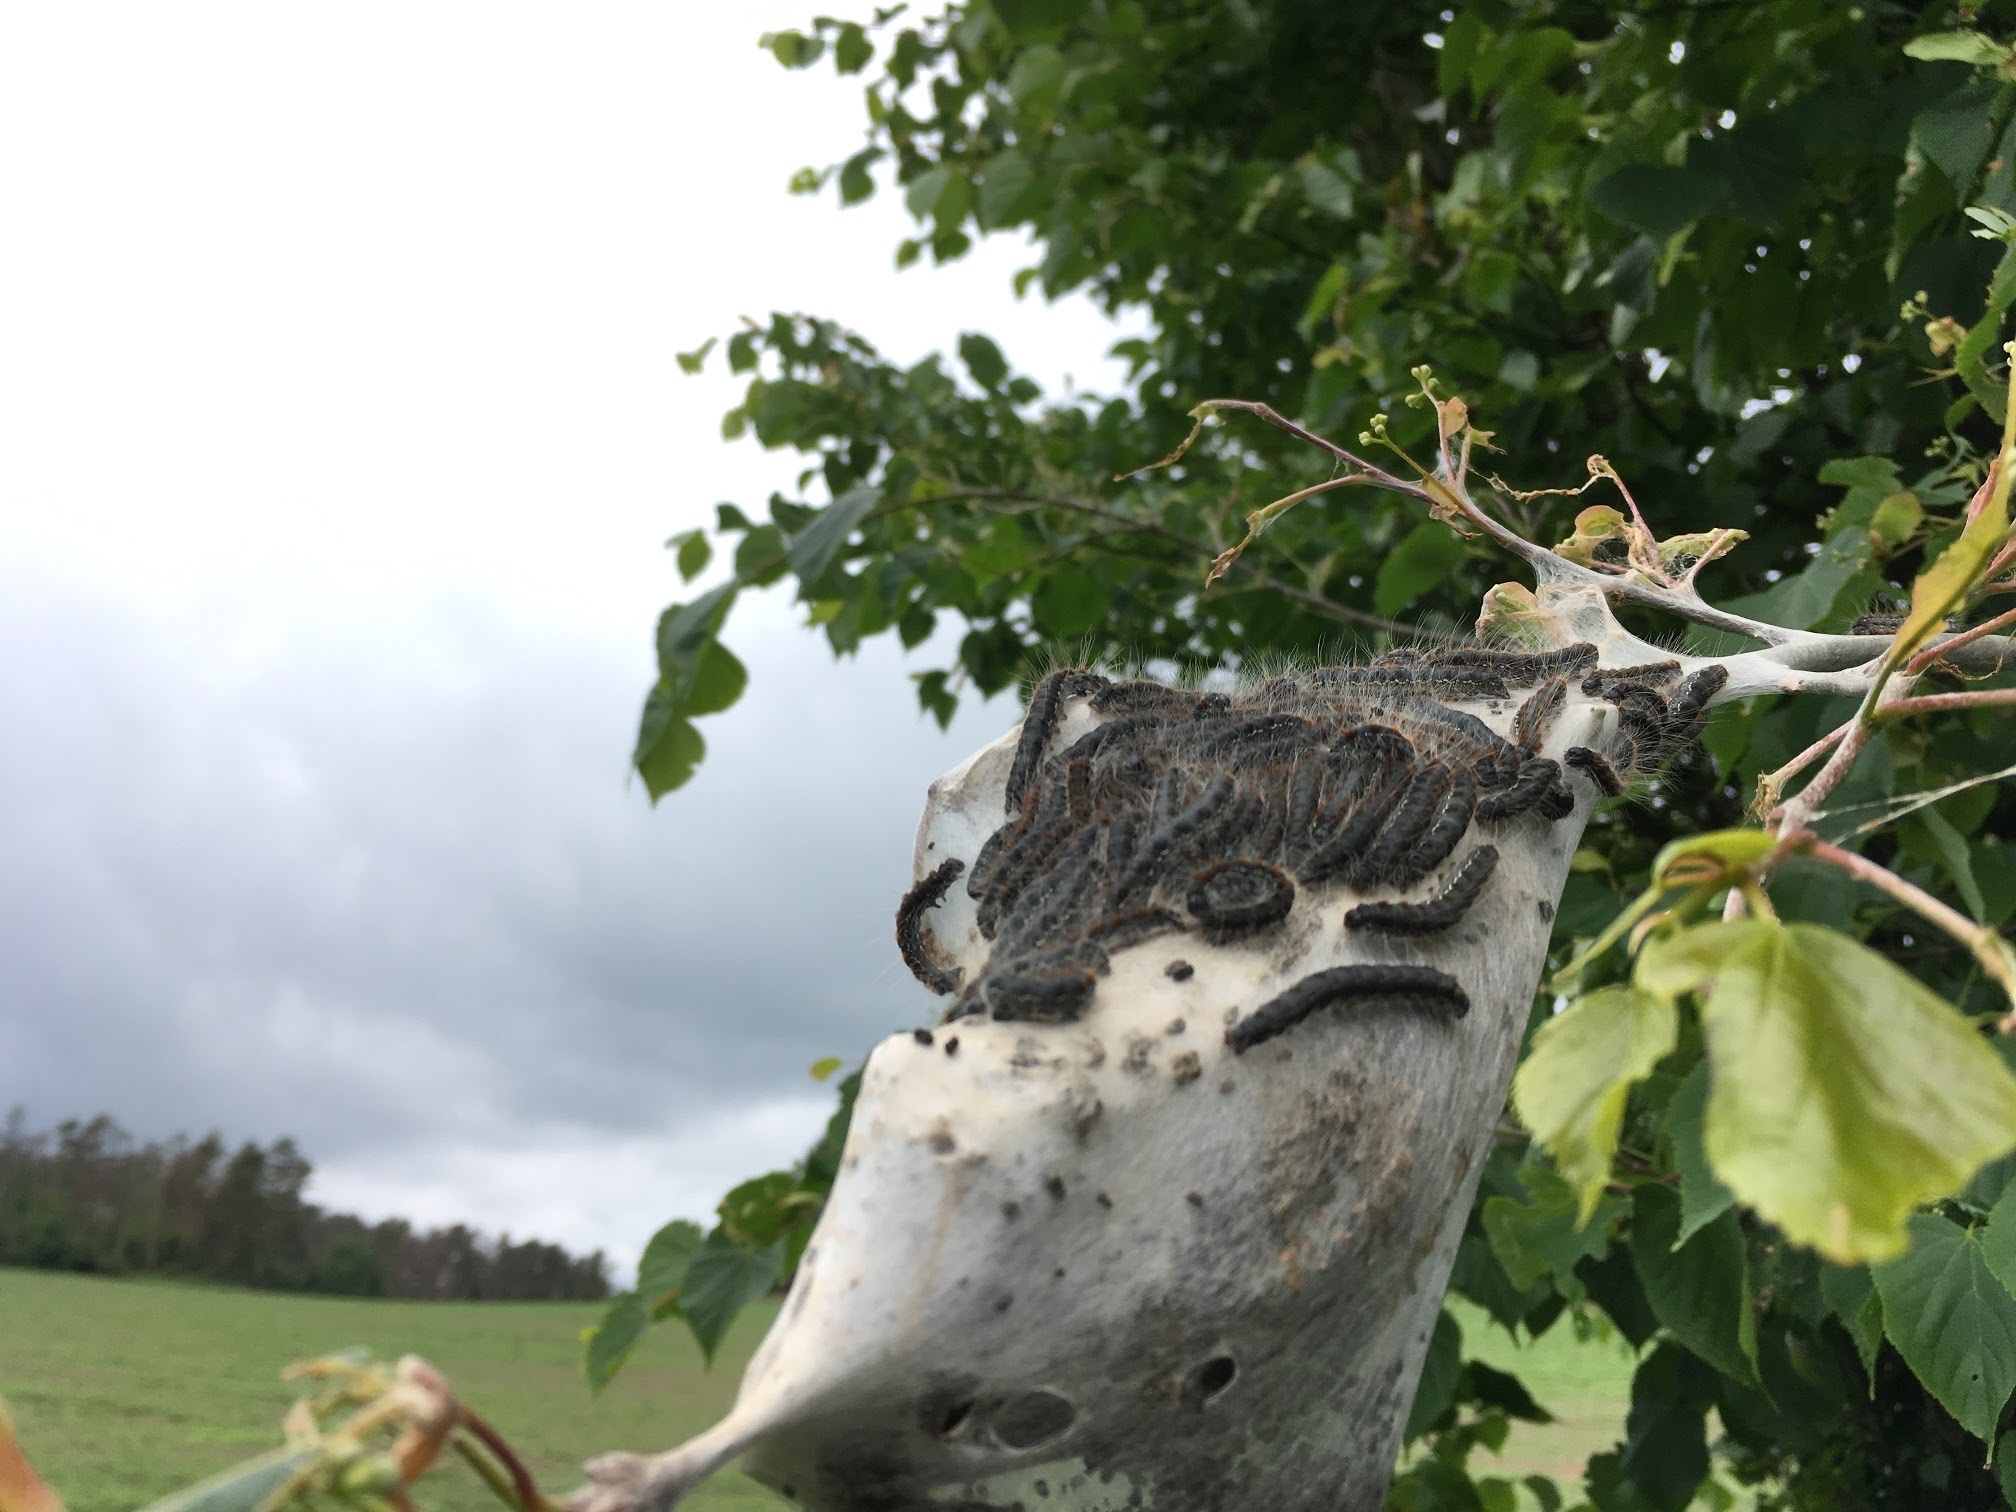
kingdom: Animalia
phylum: Arthropoda
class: Insecta
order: Lepidoptera
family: Lasiocampidae
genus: Eriogaster
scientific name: Eriogaster lanestris
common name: Small eggar
